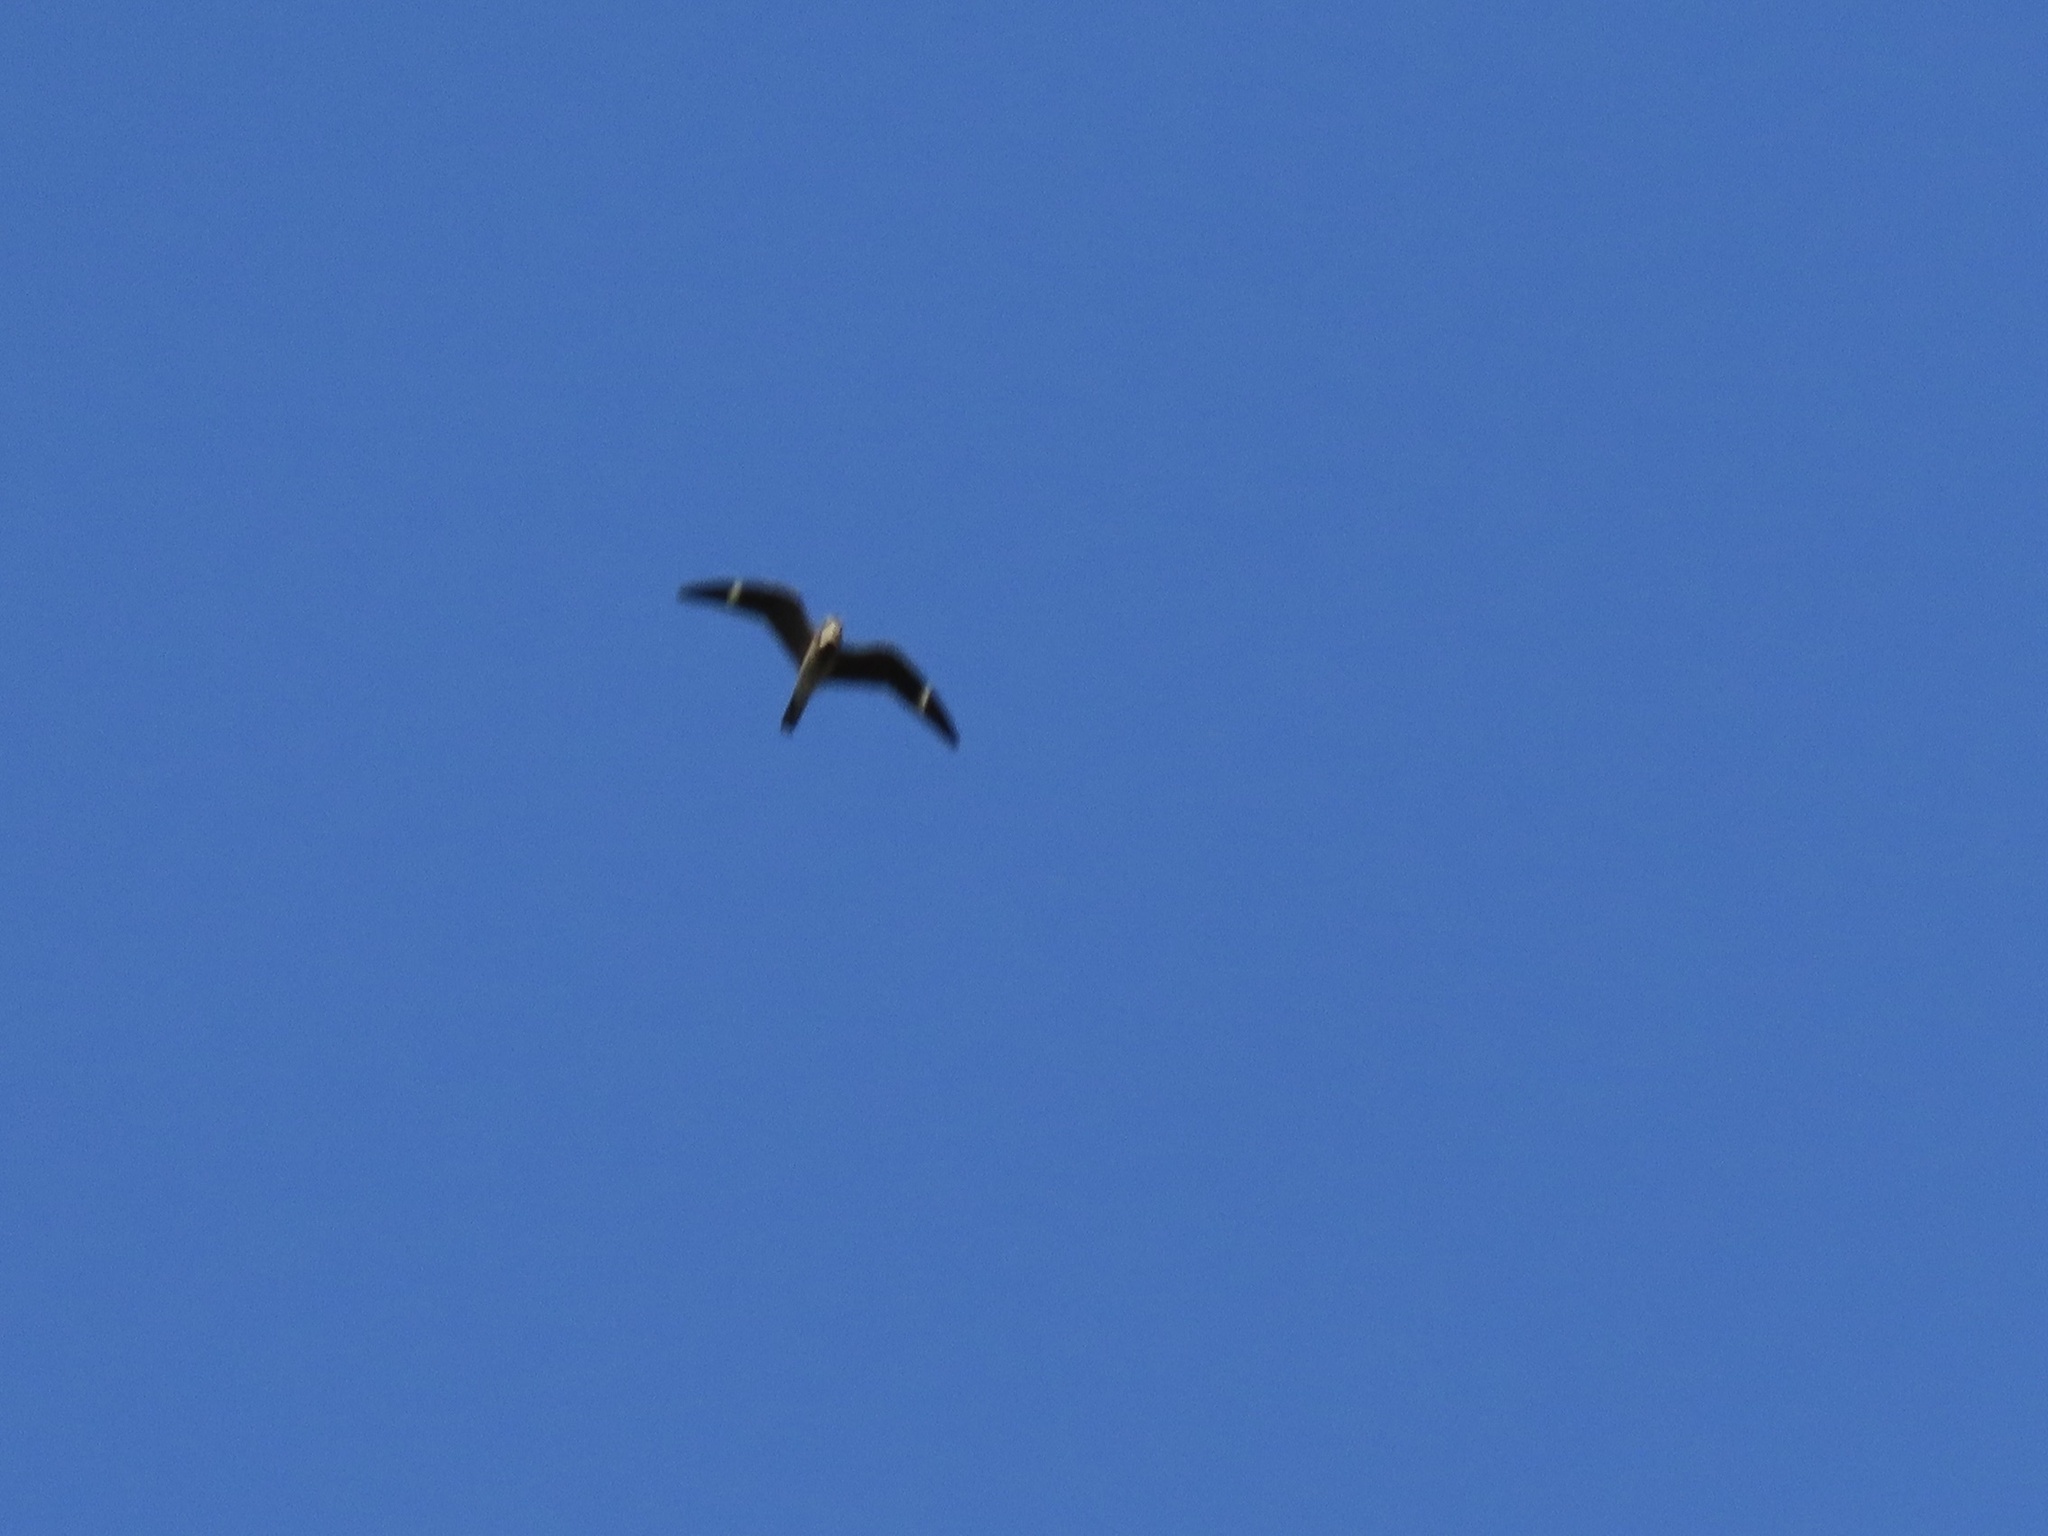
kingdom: Animalia
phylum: Chordata
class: Aves
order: Caprimulgiformes
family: Caprimulgidae
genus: Chordeiles
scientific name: Chordeiles minor
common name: Common nighthawk
